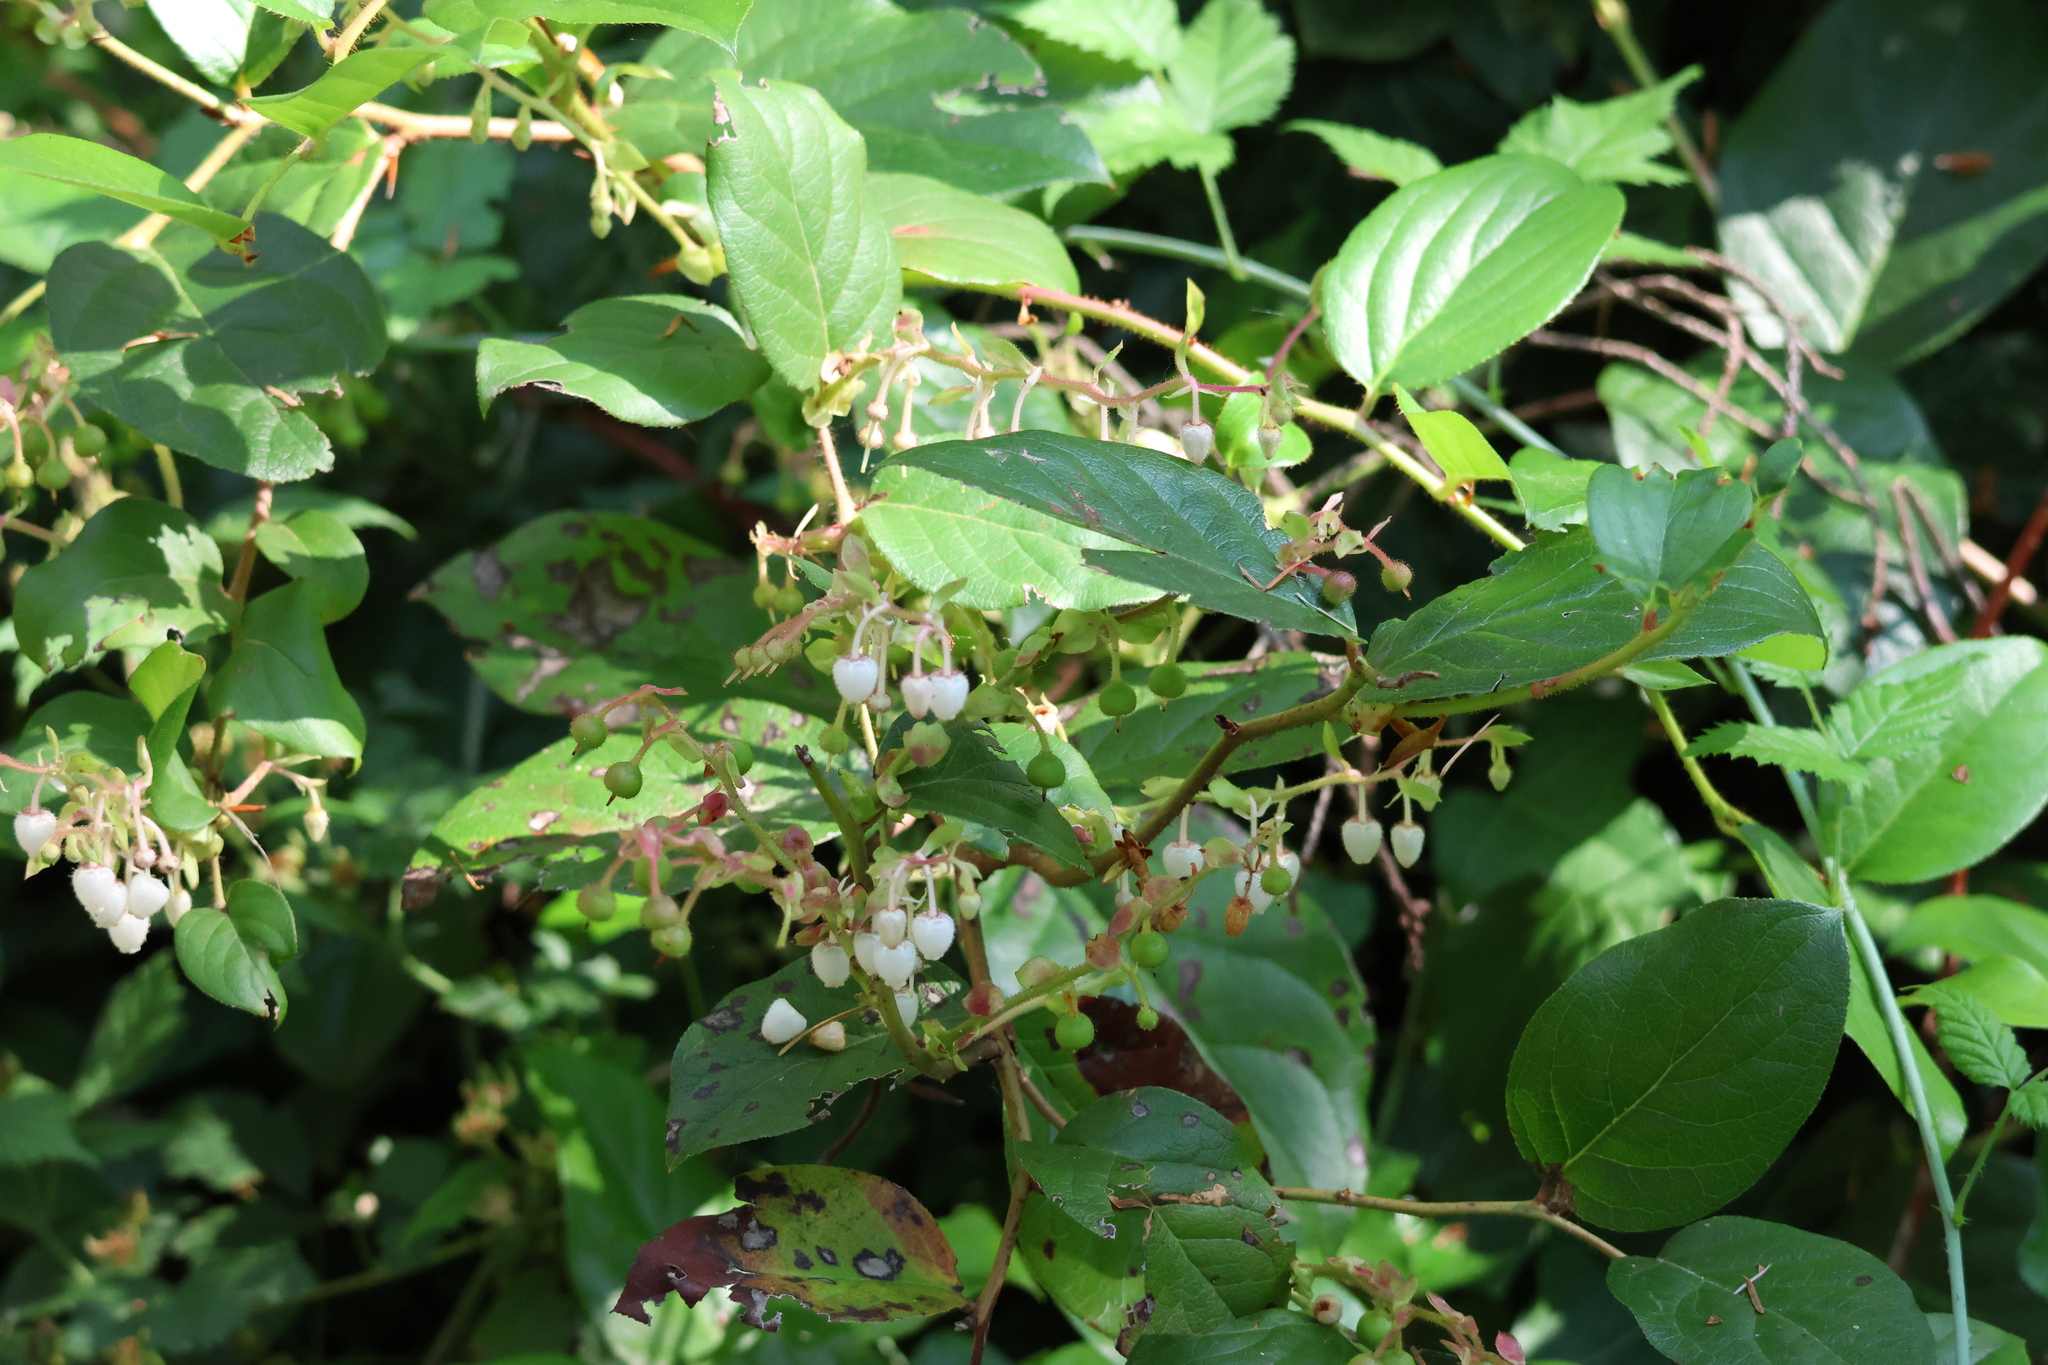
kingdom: Plantae
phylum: Tracheophyta
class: Magnoliopsida
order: Ericales
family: Ericaceae
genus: Gaultheria
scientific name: Gaultheria shallon
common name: Shallon
